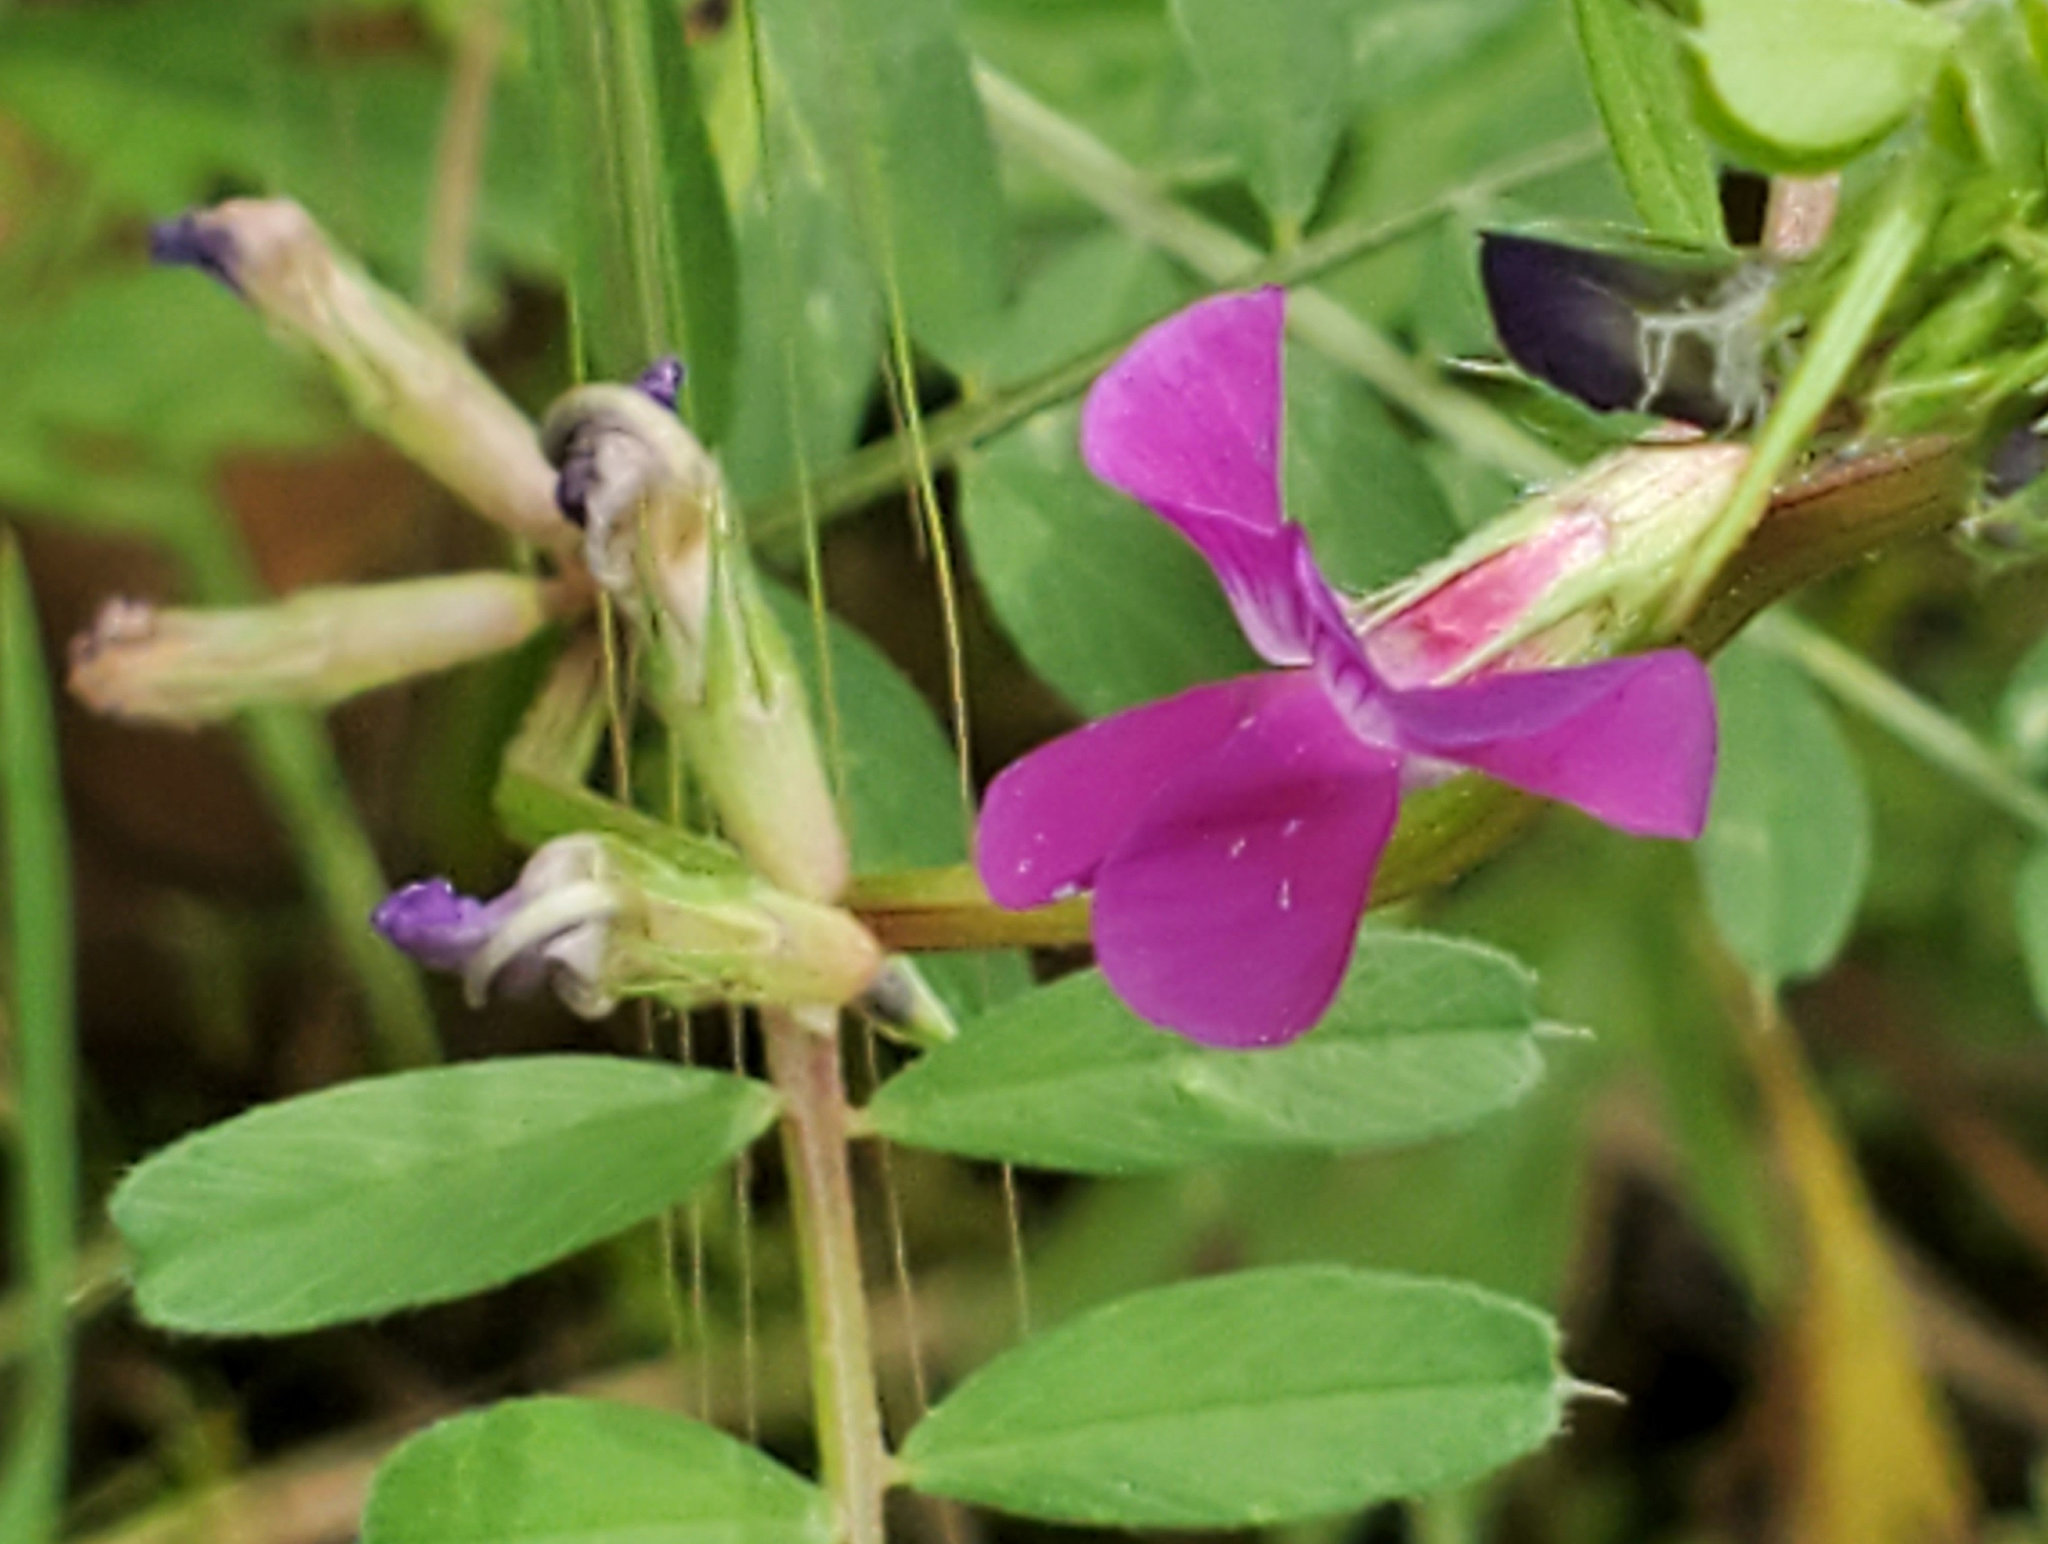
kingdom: Plantae
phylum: Tracheophyta
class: Magnoliopsida
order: Fabales
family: Fabaceae
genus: Vicia
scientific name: Vicia sativa
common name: Garden vetch
